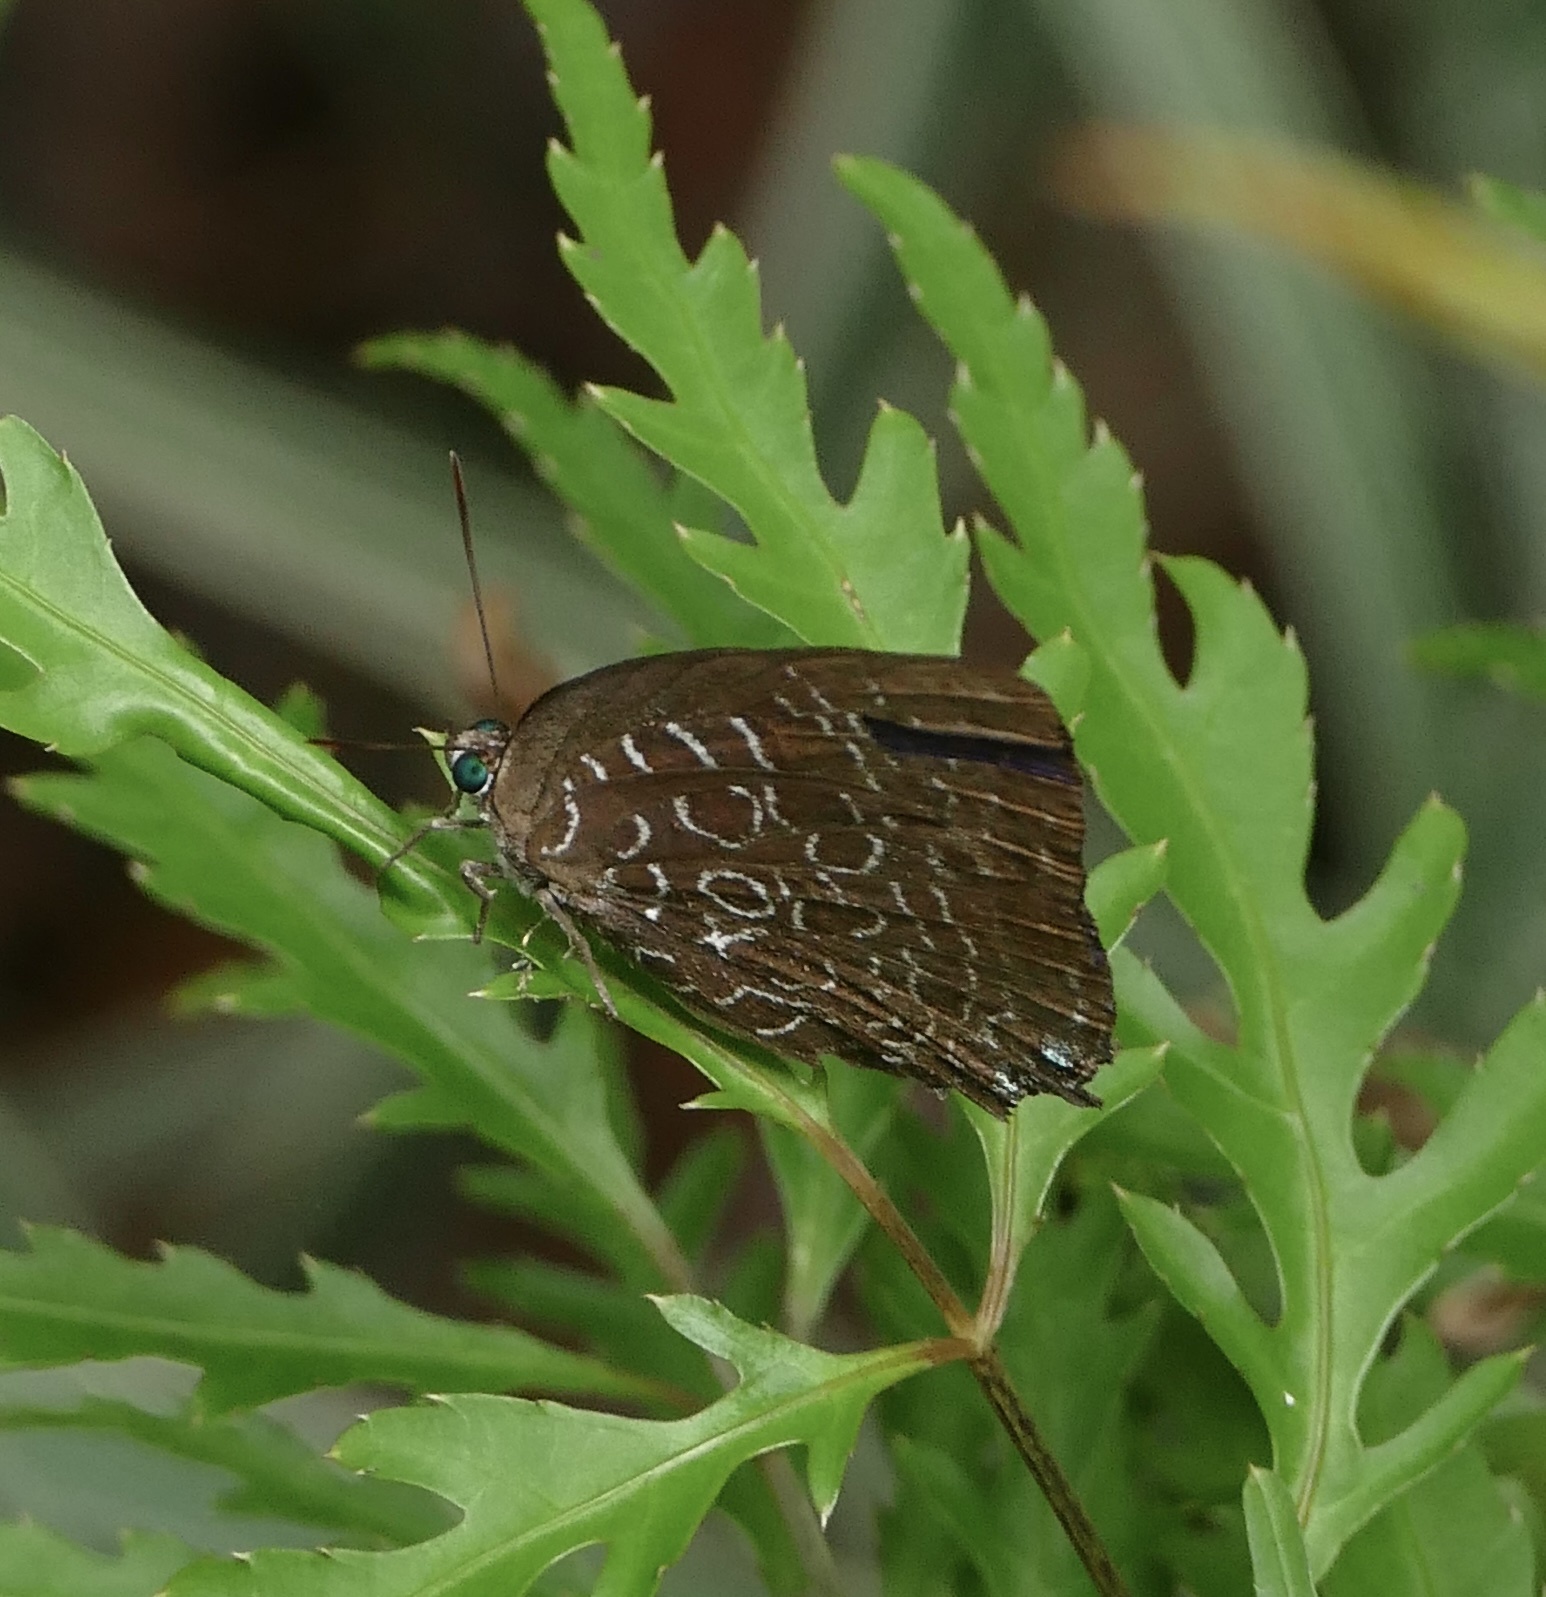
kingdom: Animalia
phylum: Arthropoda
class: Insecta
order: Lepidoptera
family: Lycaenidae
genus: Arhopala
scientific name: Arhopala acetes
